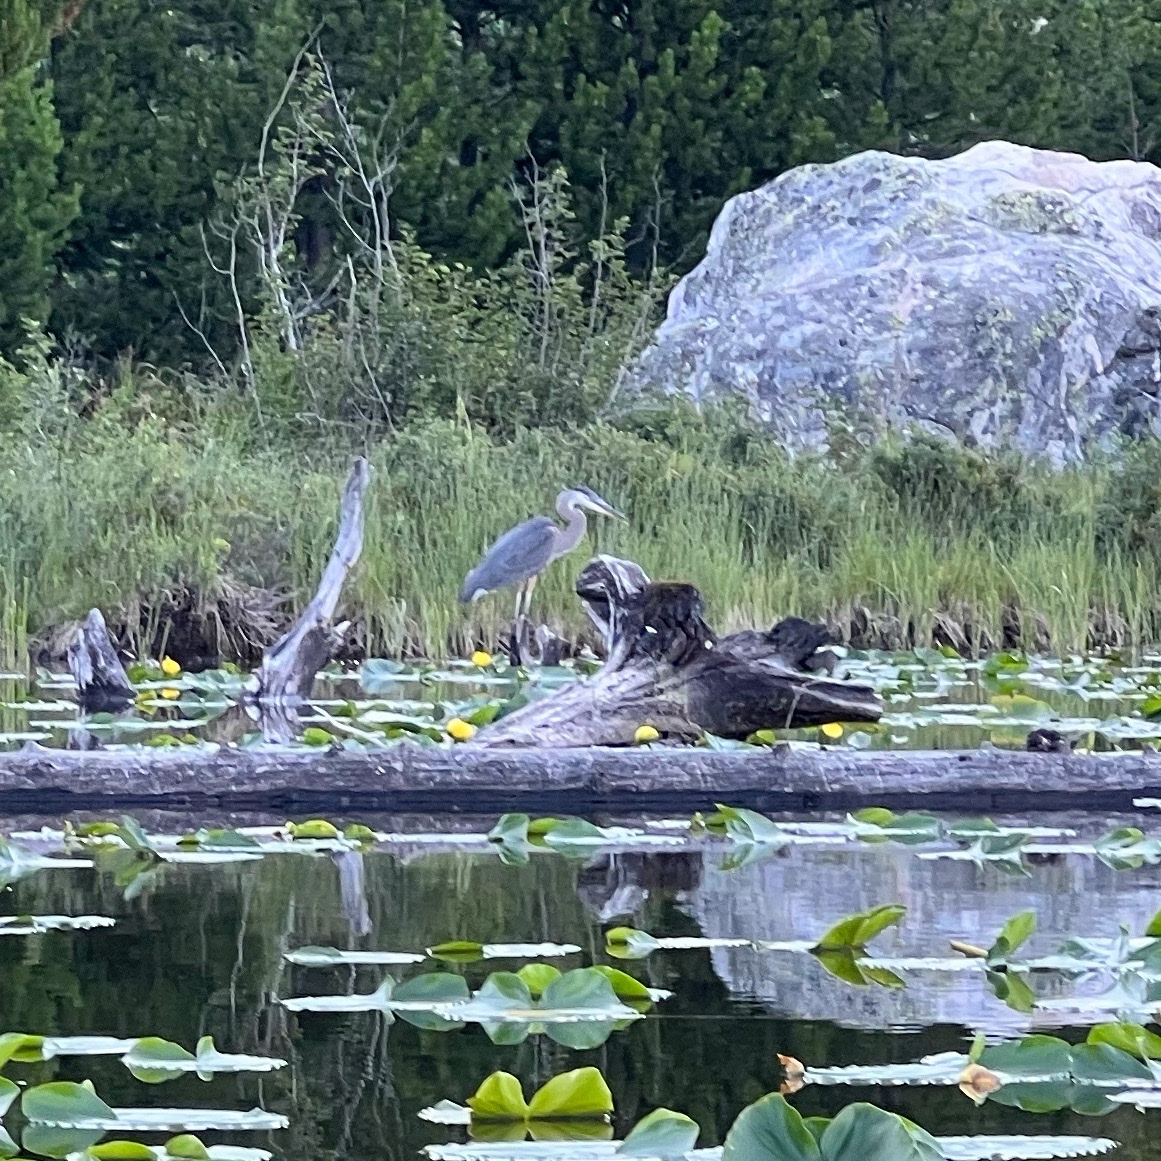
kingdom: Animalia
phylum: Chordata
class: Aves
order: Pelecaniformes
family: Ardeidae
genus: Ardea
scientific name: Ardea herodias
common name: Great blue heron
